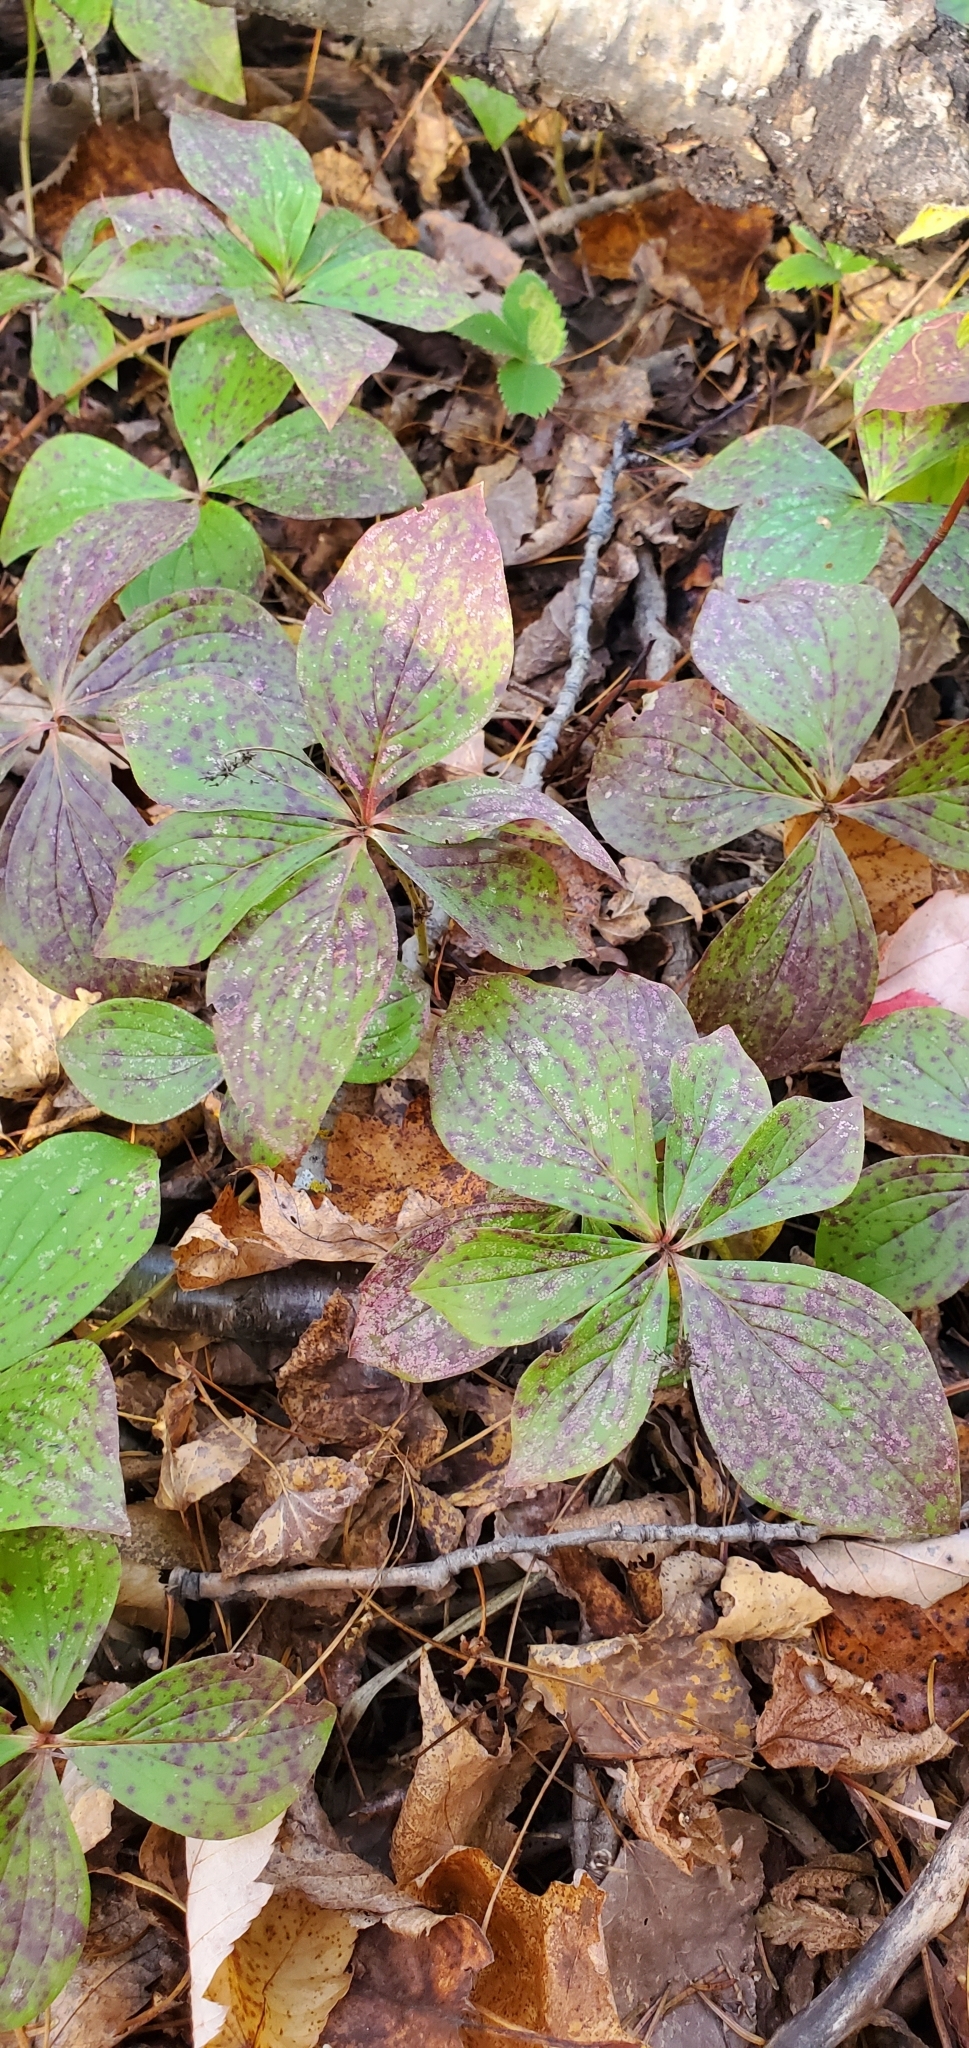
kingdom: Plantae
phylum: Tracheophyta
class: Magnoliopsida
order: Cornales
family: Cornaceae
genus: Cornus
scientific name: Cornus canadensis
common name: Creeping dogwood
